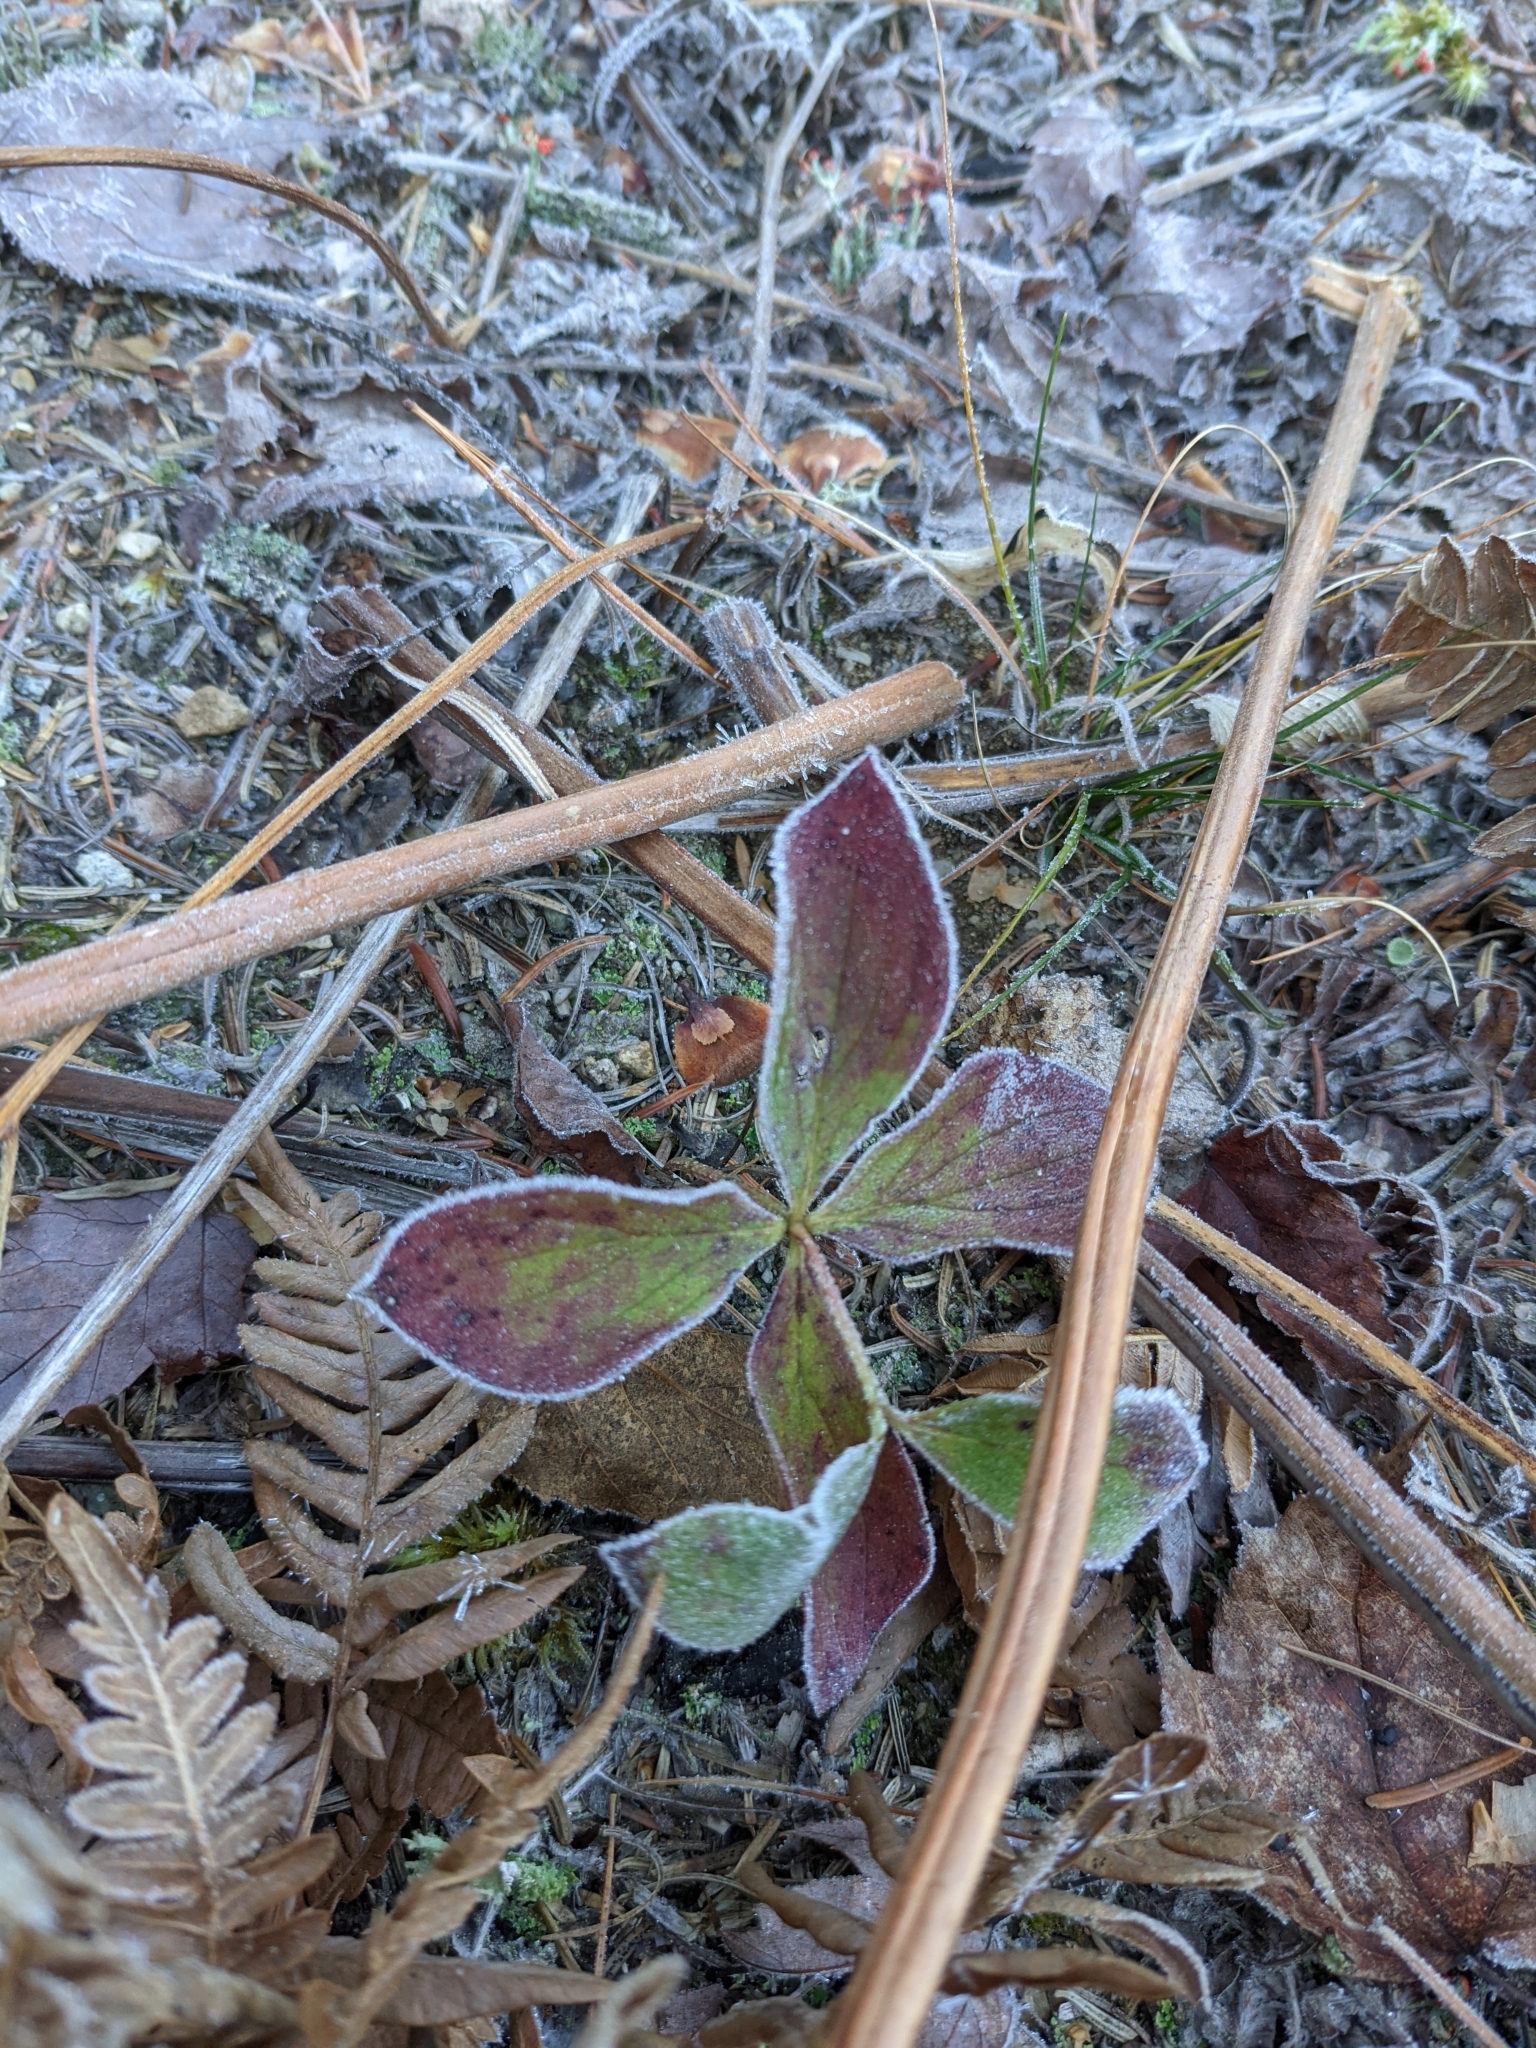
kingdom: Plantae
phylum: Tracheophyta
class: Magnoliopsida
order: Cornales
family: Cornaceae
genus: Cornus
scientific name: Cornus canadensis
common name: Creeping dogwood
